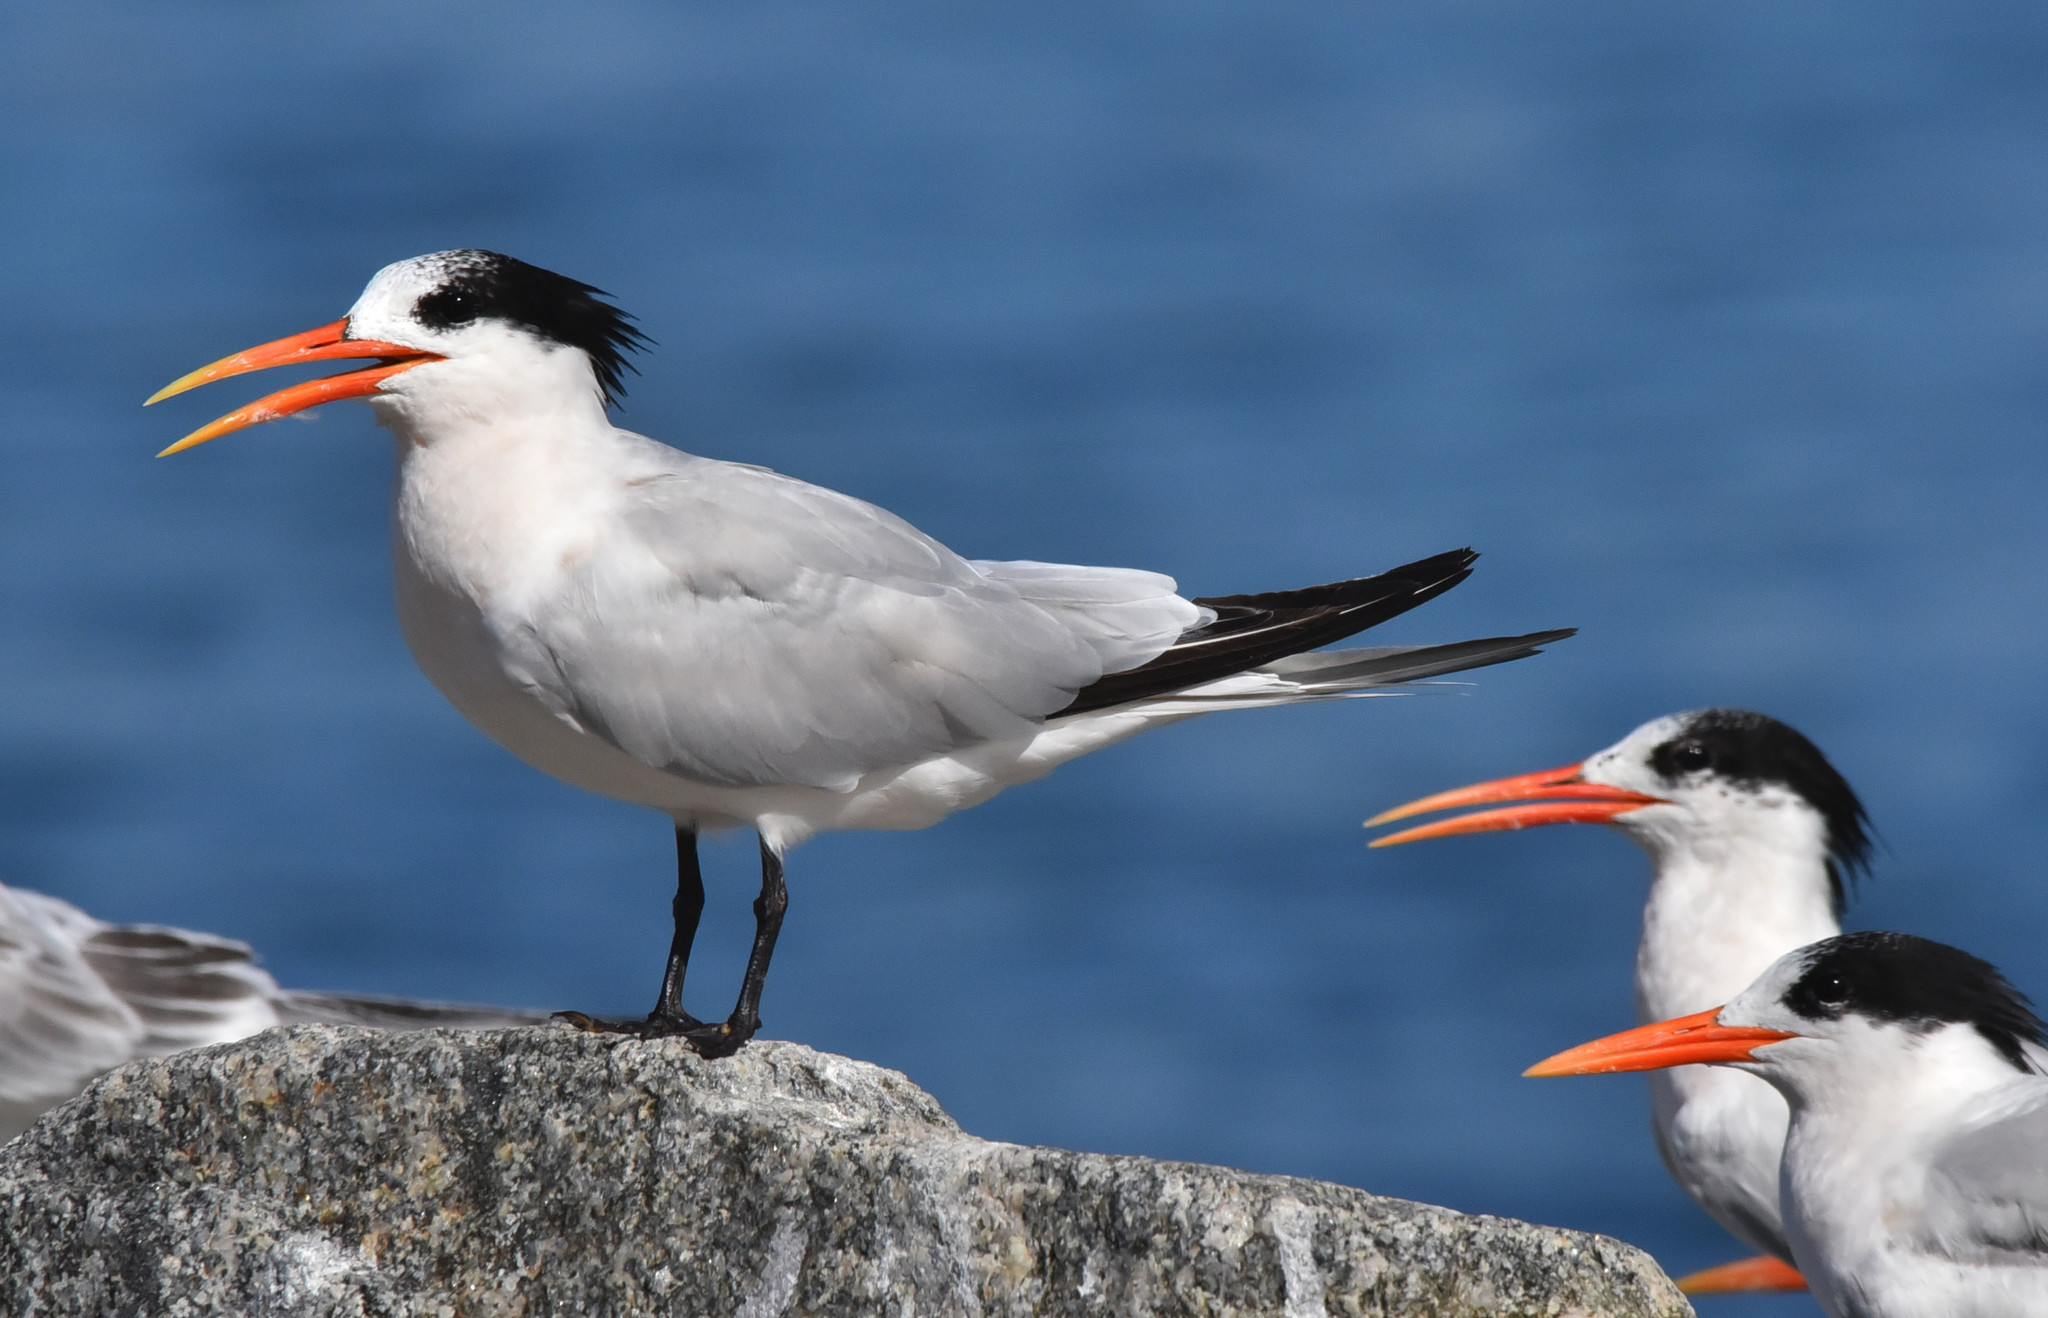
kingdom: Animalia
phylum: Chordata
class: Aves
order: Charadriiformes
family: Laridae
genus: Thalasseus
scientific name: Thalasseus elegans
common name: Elegant tern
